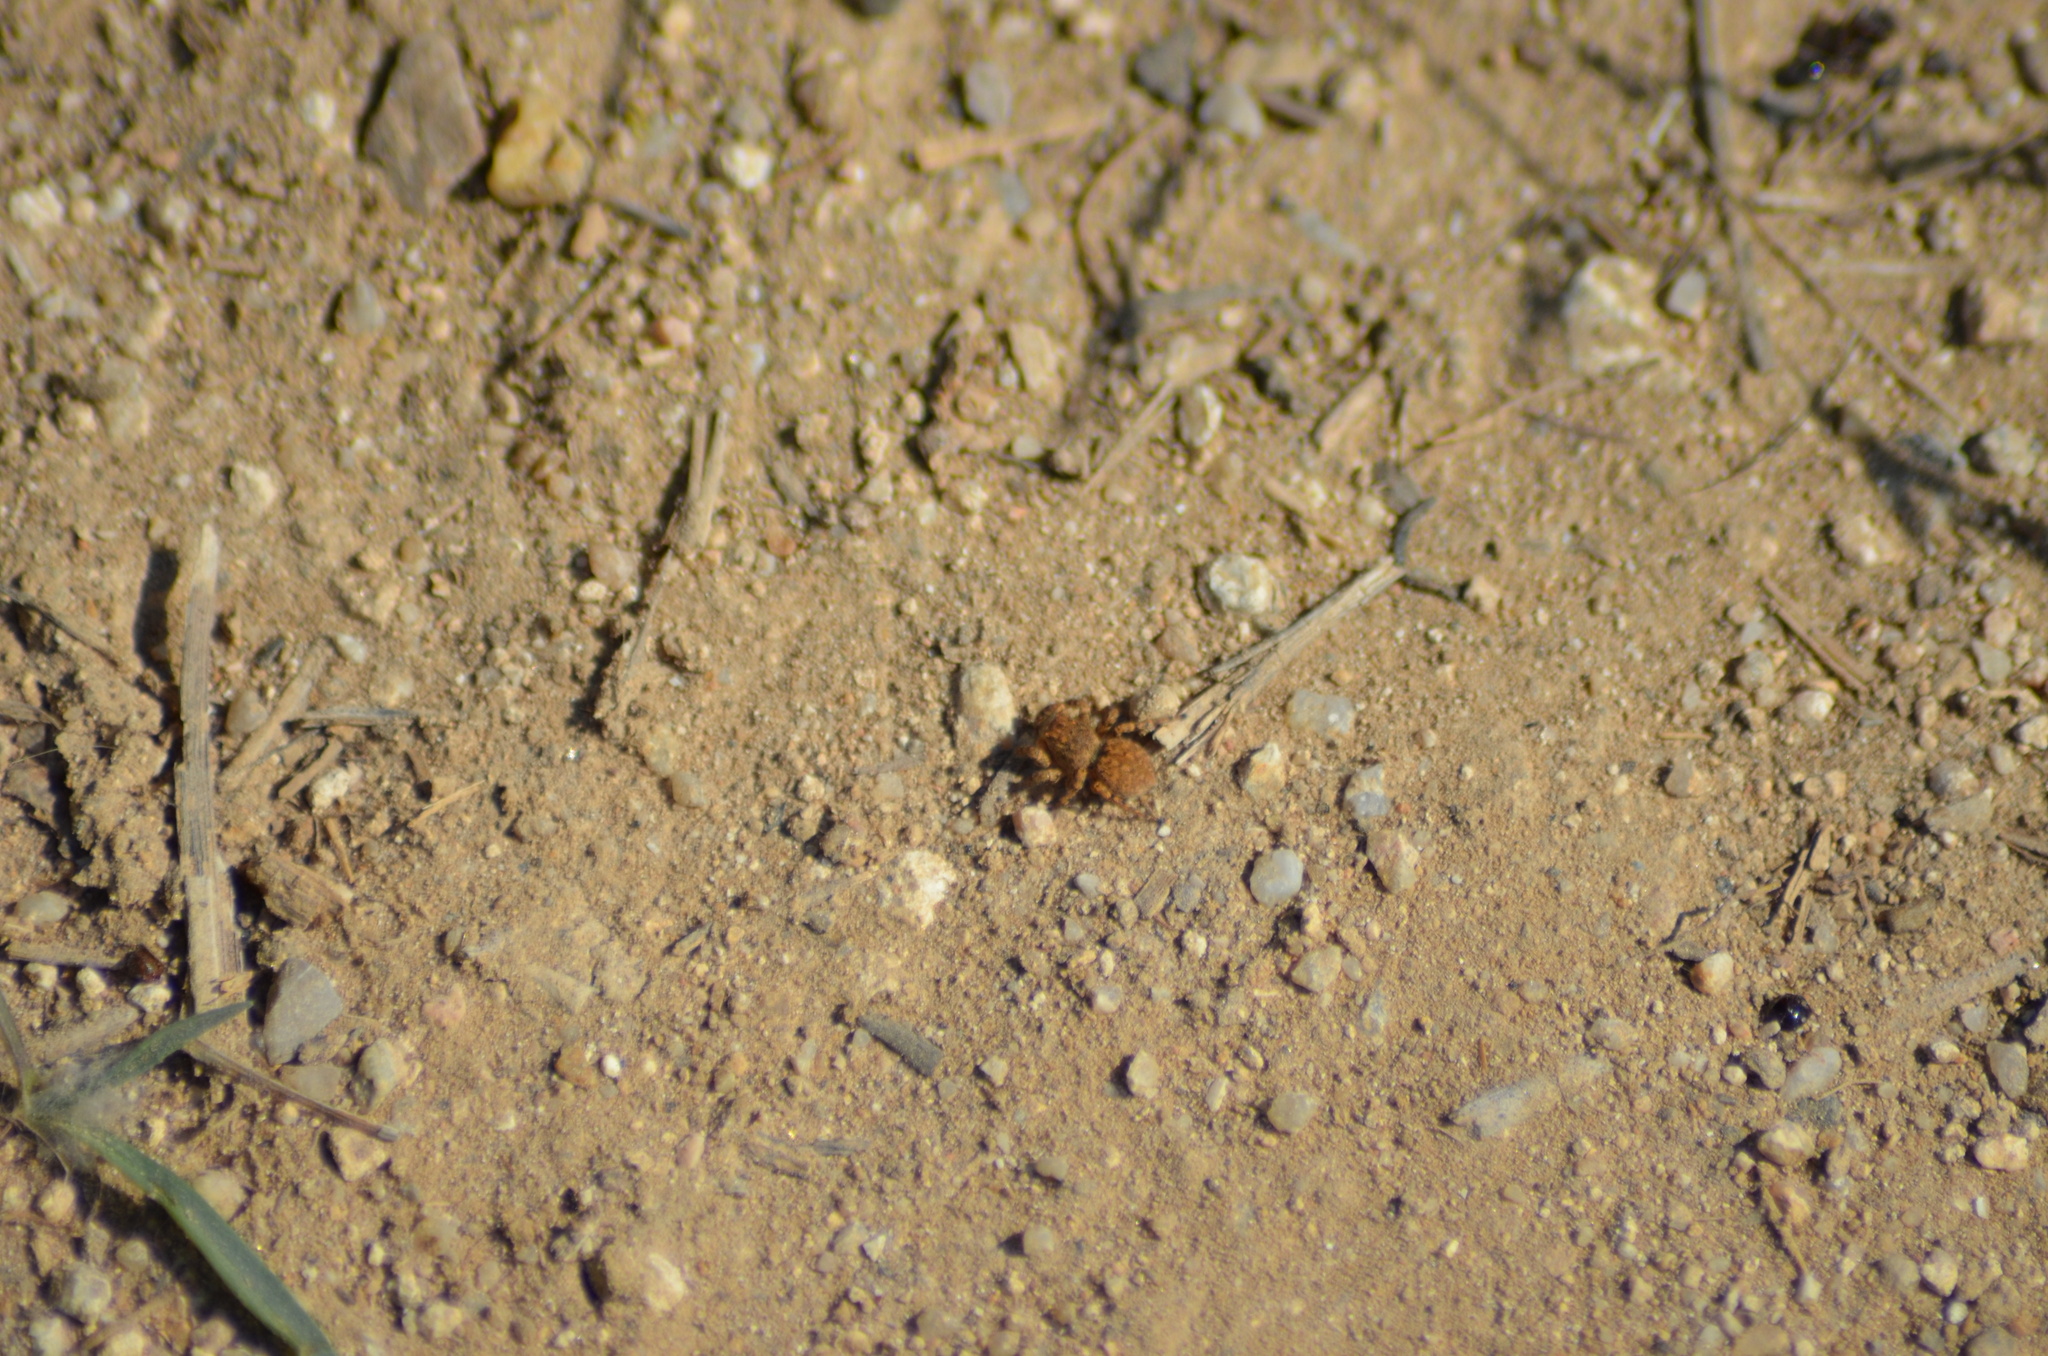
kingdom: Animalia
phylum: Arthropoda
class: Arachnida
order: Araneae
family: Salticidae
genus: Aelurillus
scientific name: Aelurillus v-insignitus
